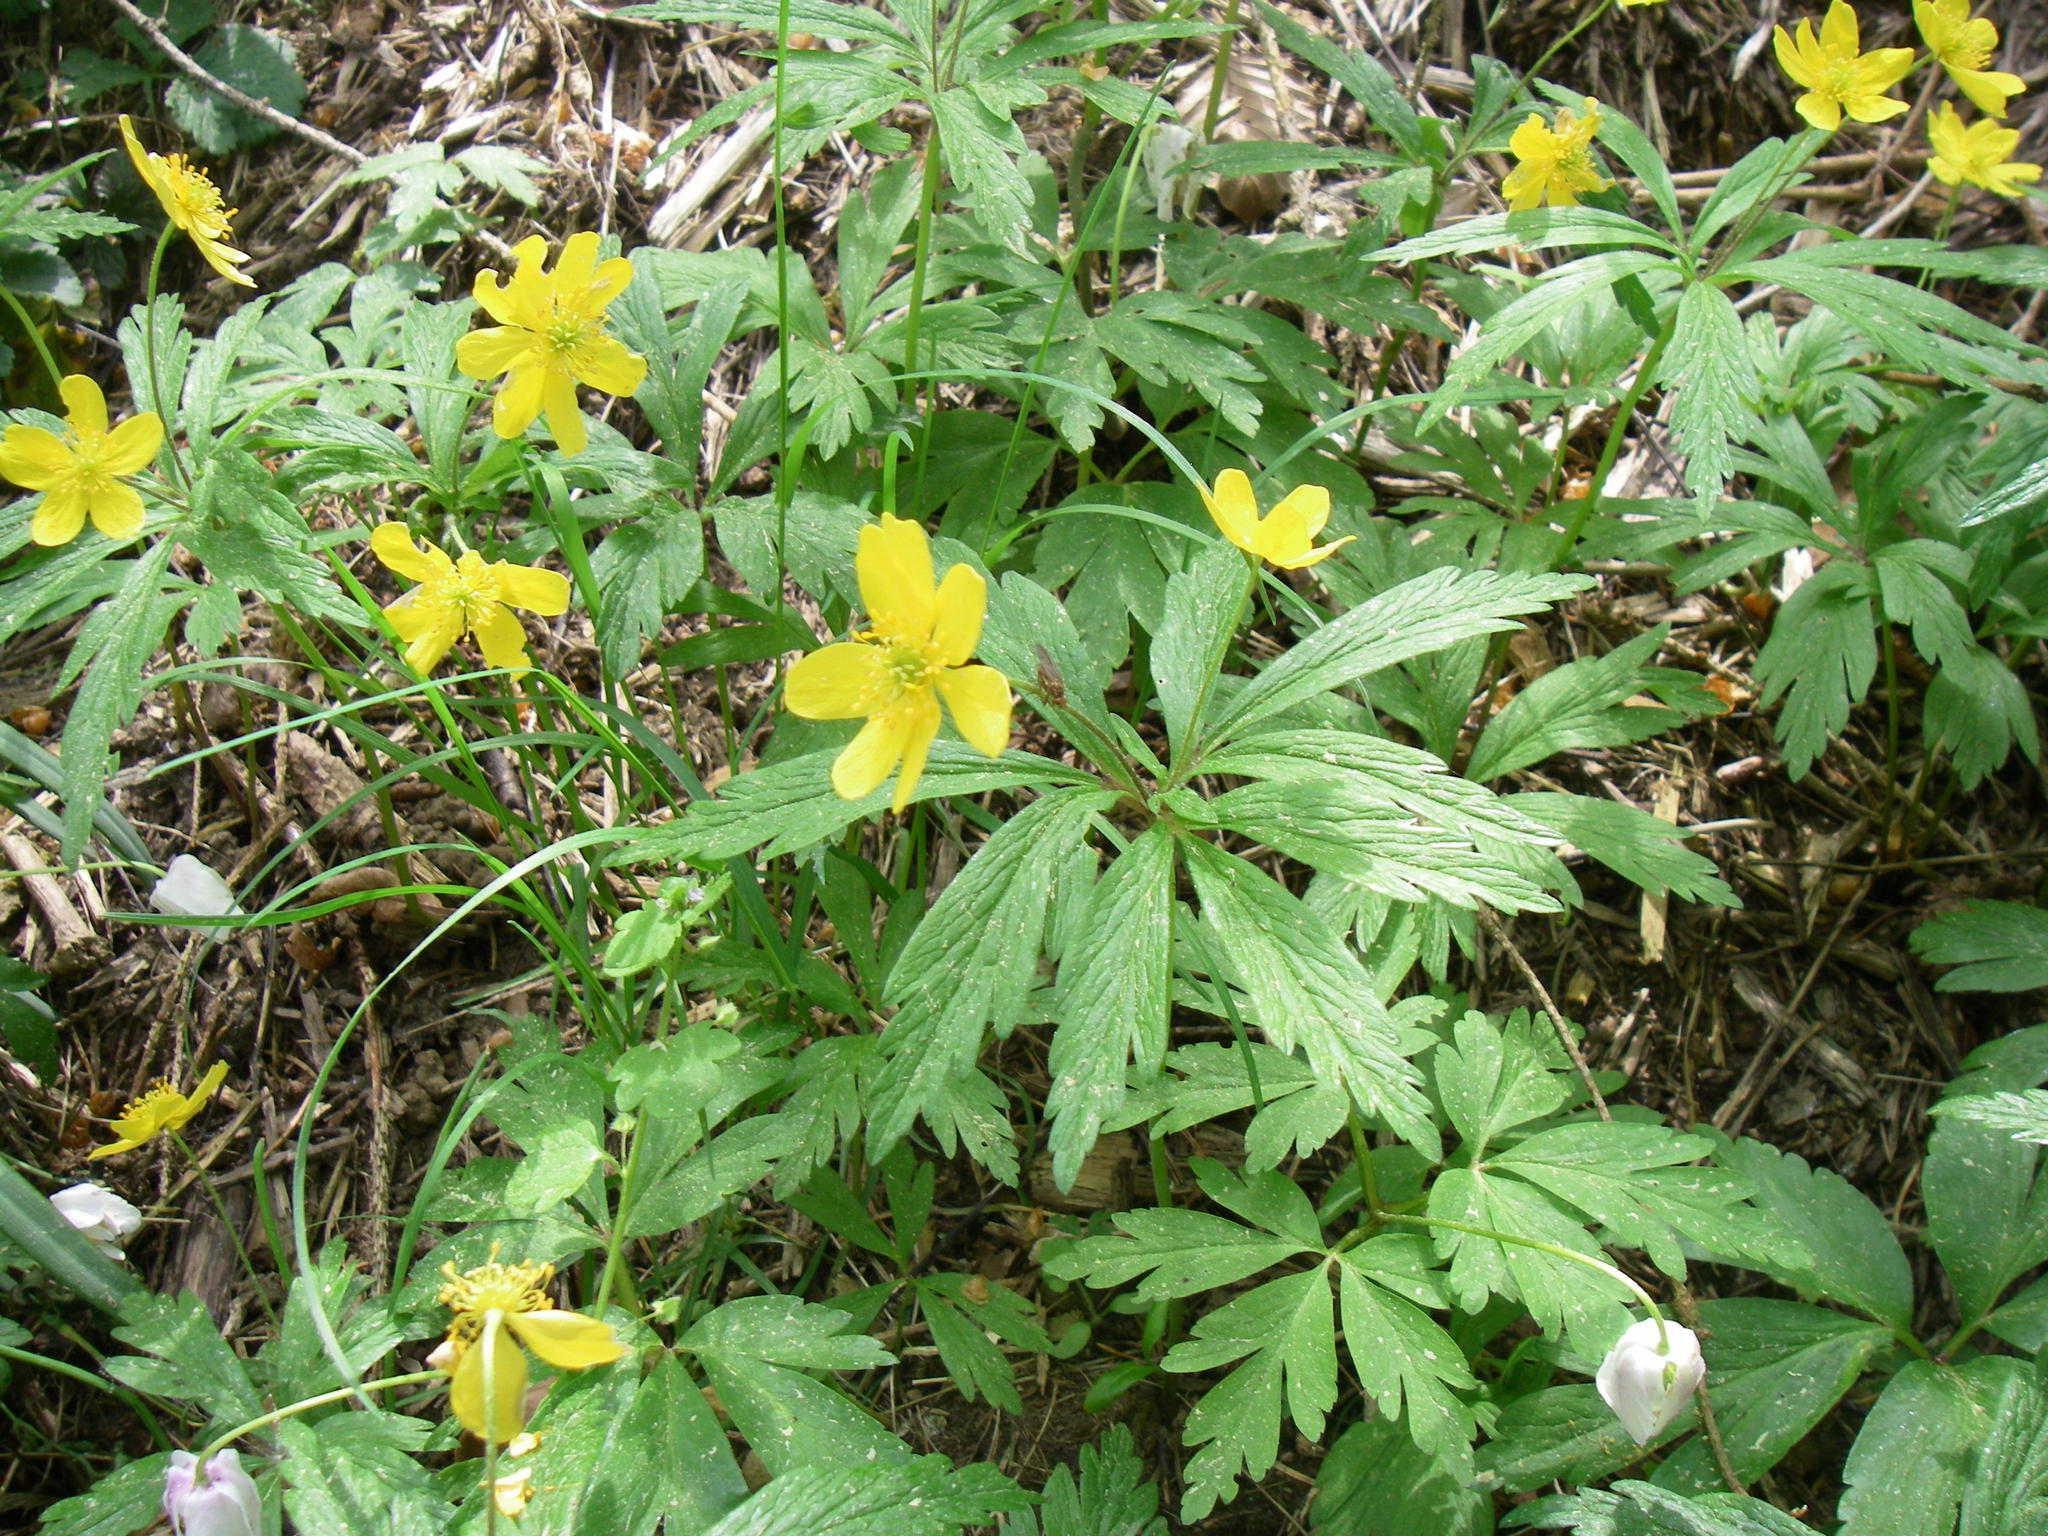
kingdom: Plantae
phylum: Tracheophyta
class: Magnoliopsida
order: Ranunculales
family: Ranunculaceae
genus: Anemone
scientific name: Anemone ranunculoides
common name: Yellow anemone
